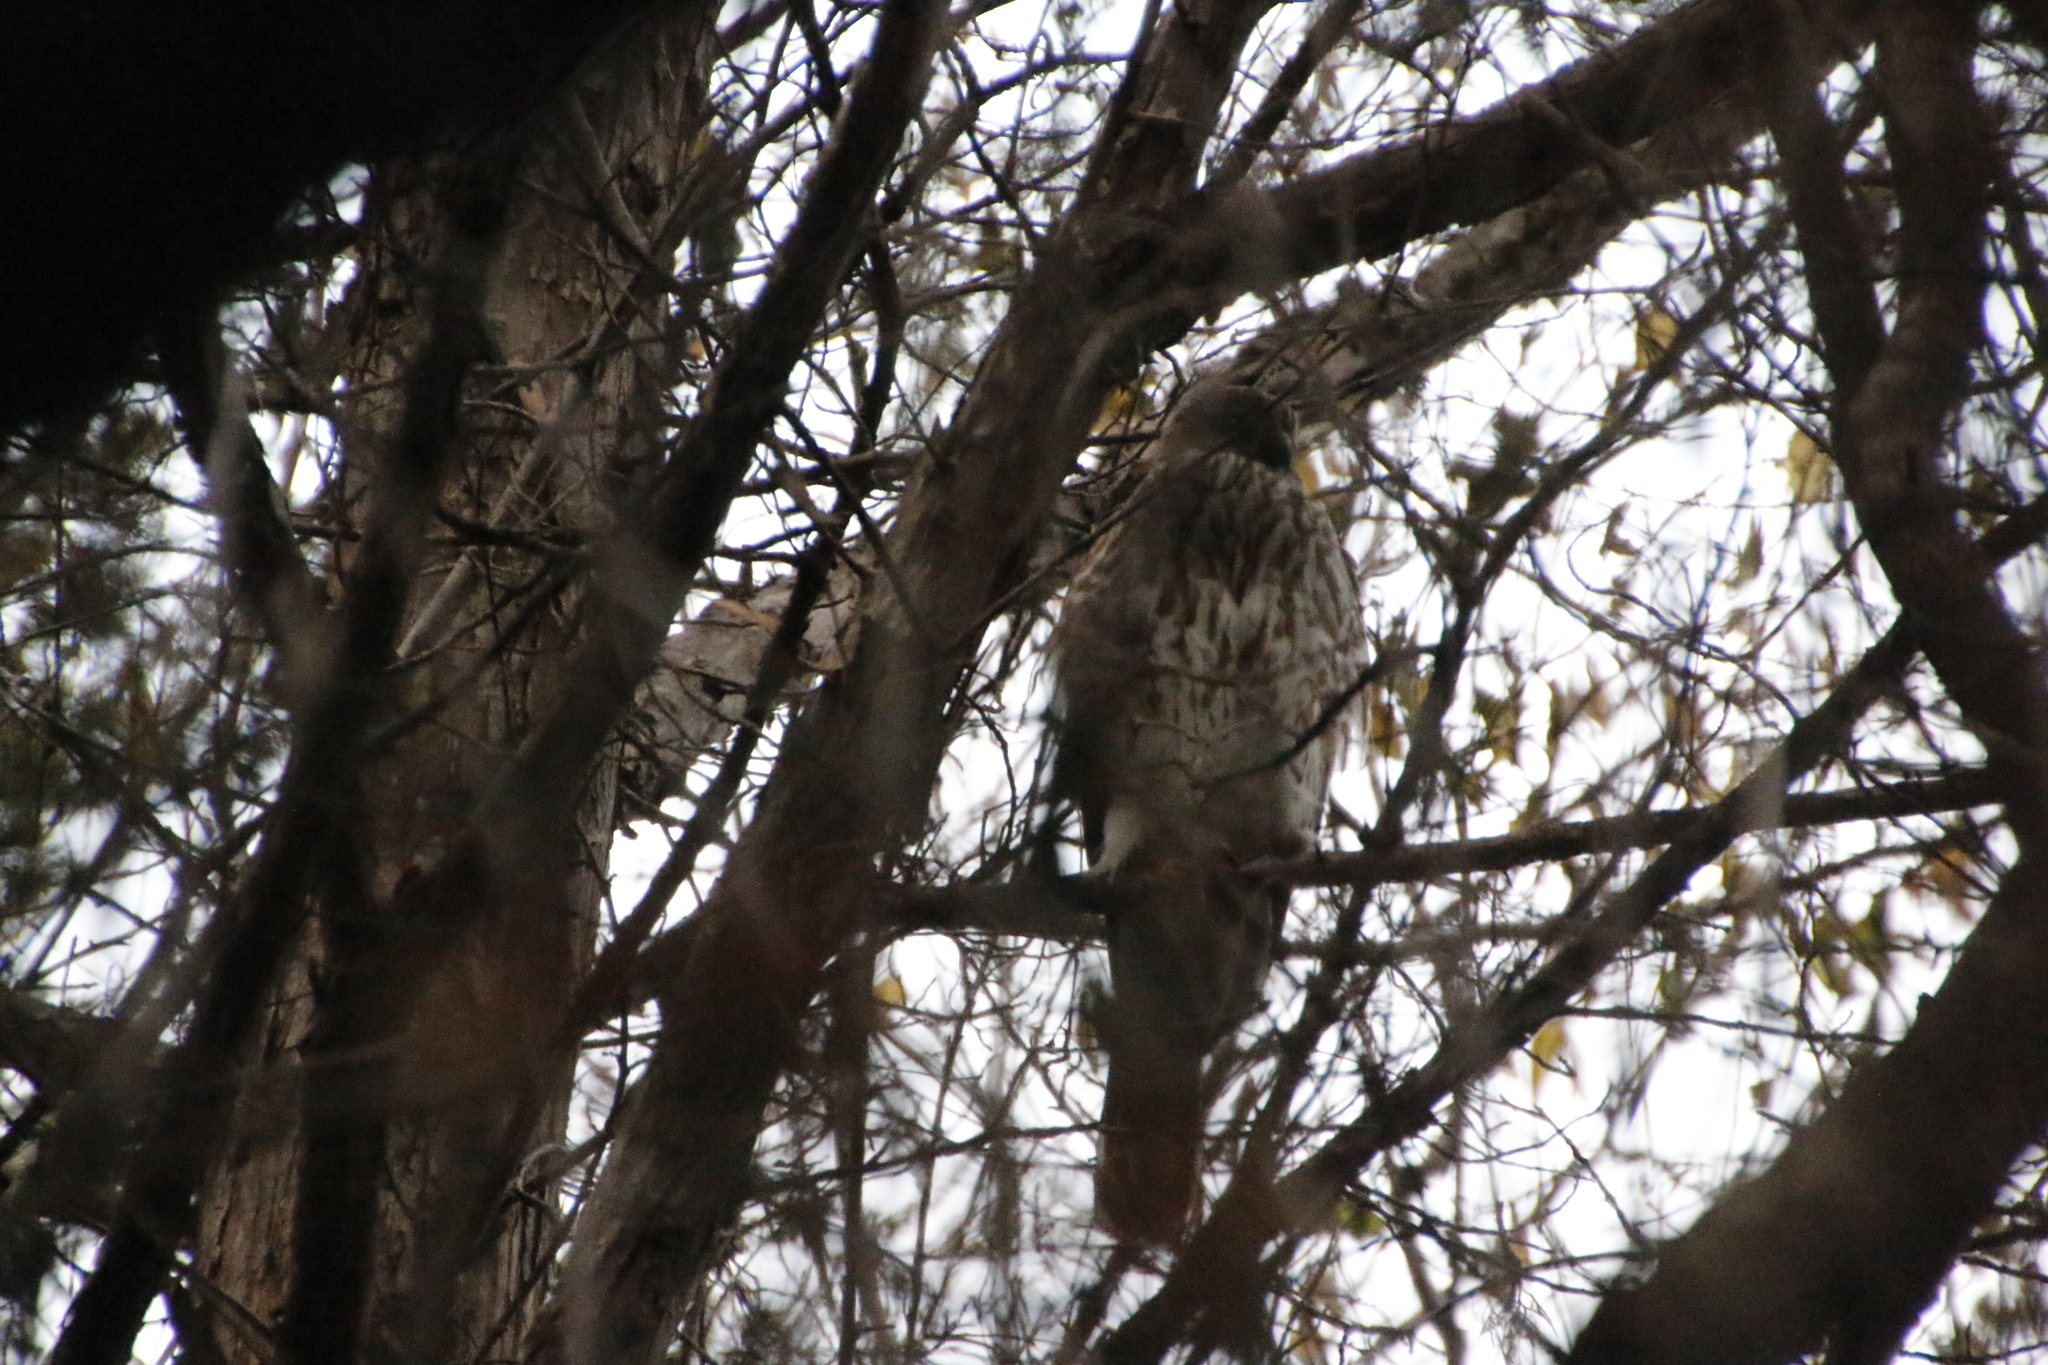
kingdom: Animalia
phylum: Chordata
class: Aves
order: Accipitriformes
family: Accipitridae
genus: Accipiter
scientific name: Accipiter striatus
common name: Sharp-shinned hawk
